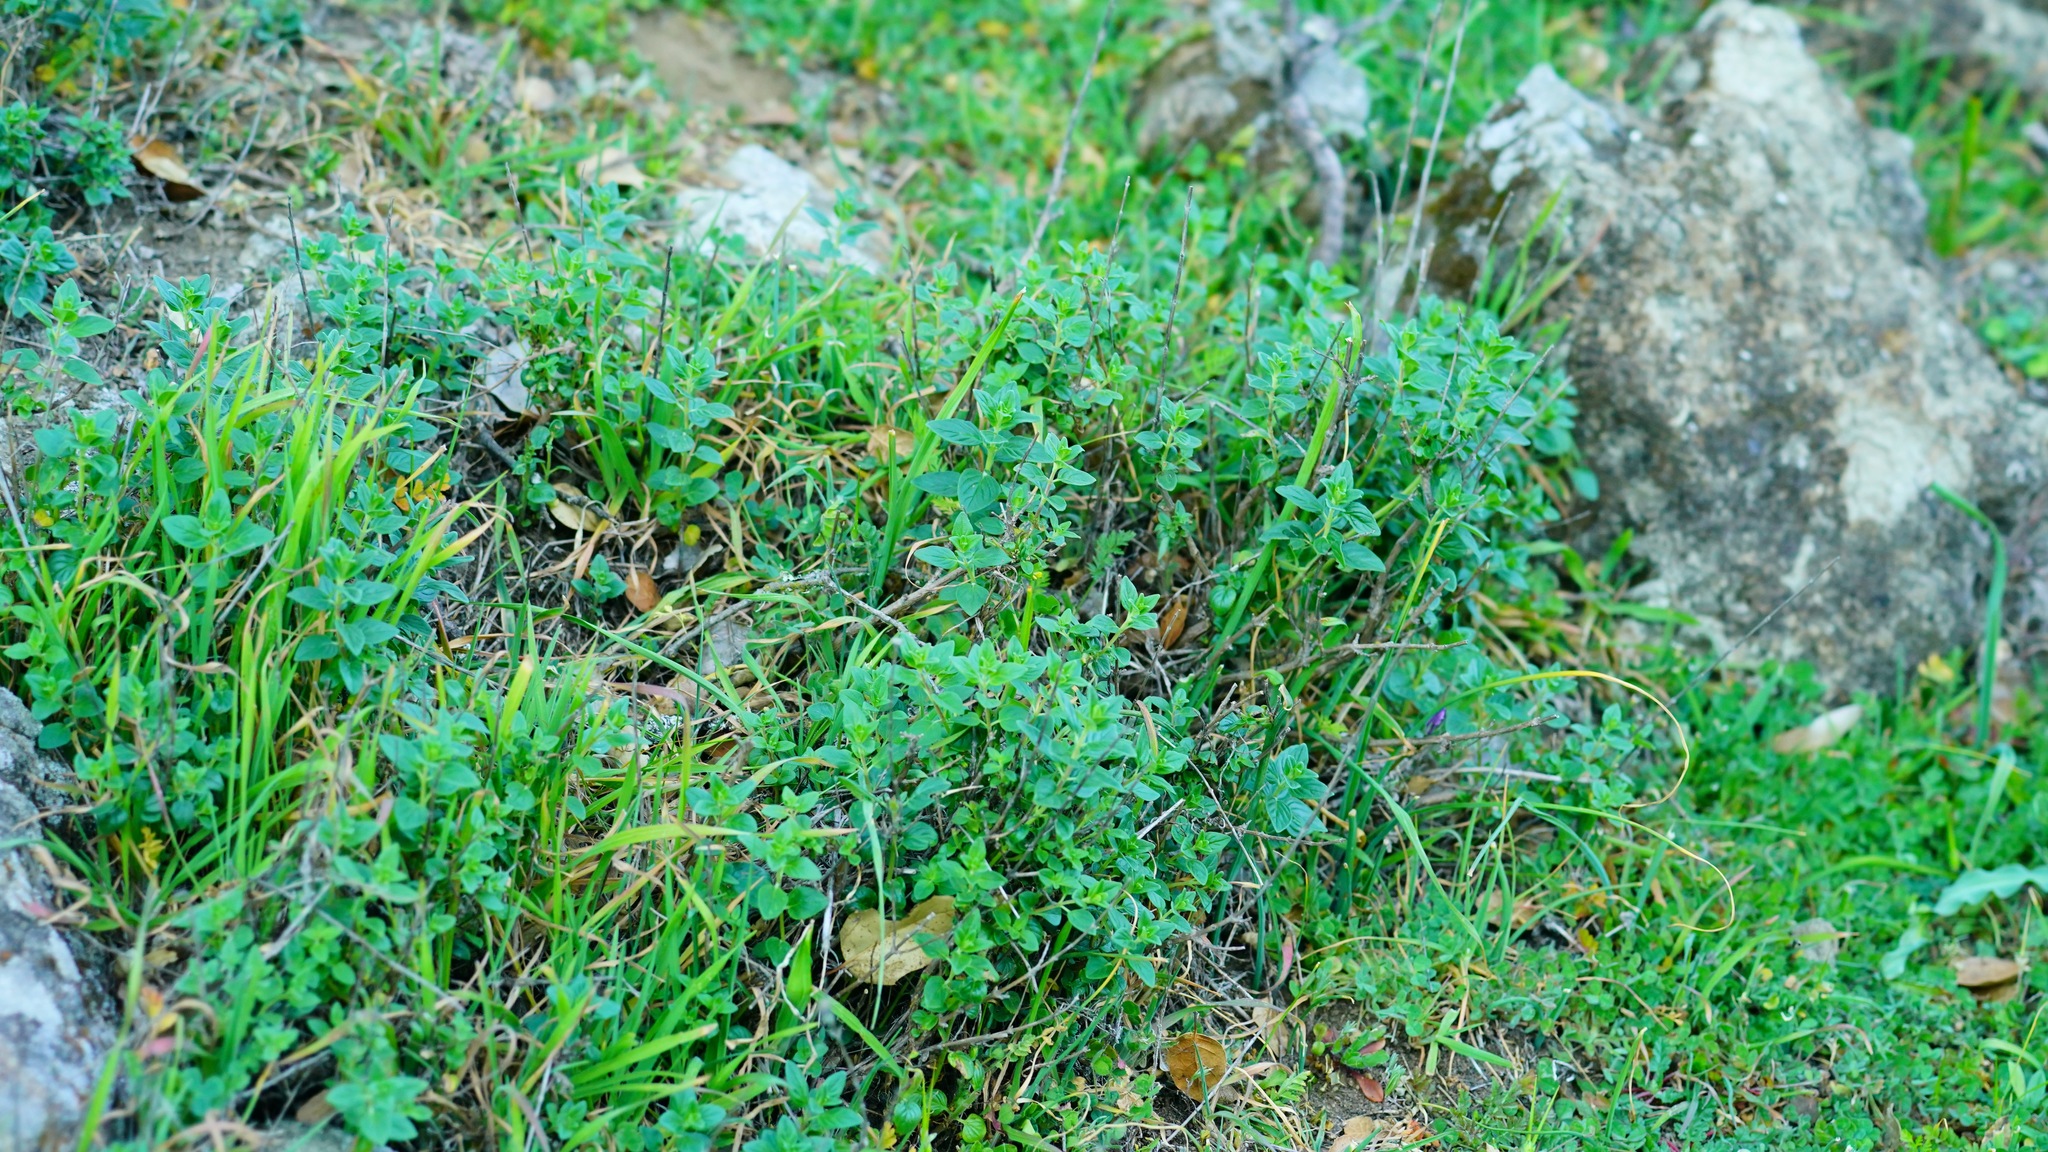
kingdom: Plantae
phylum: Tracheophyta
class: Magnoliopsida
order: Lamiales
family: Lamiaceae
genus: Monardella
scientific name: Monardella odoratissima
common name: Pacific monardella
